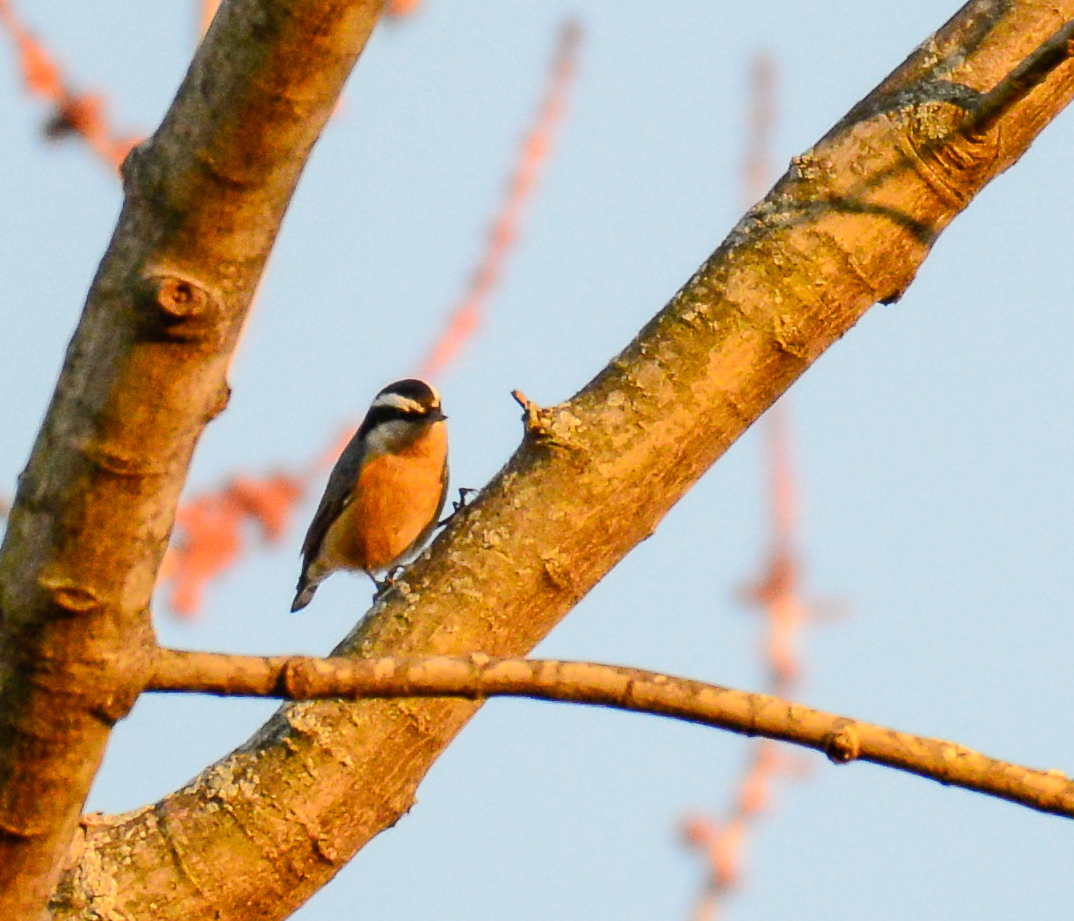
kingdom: Animalia
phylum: Chordata
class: Aves
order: Passeriformes
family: Sittidae
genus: Sitta
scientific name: Sitta canadensis
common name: Red-breasted nuthatch
